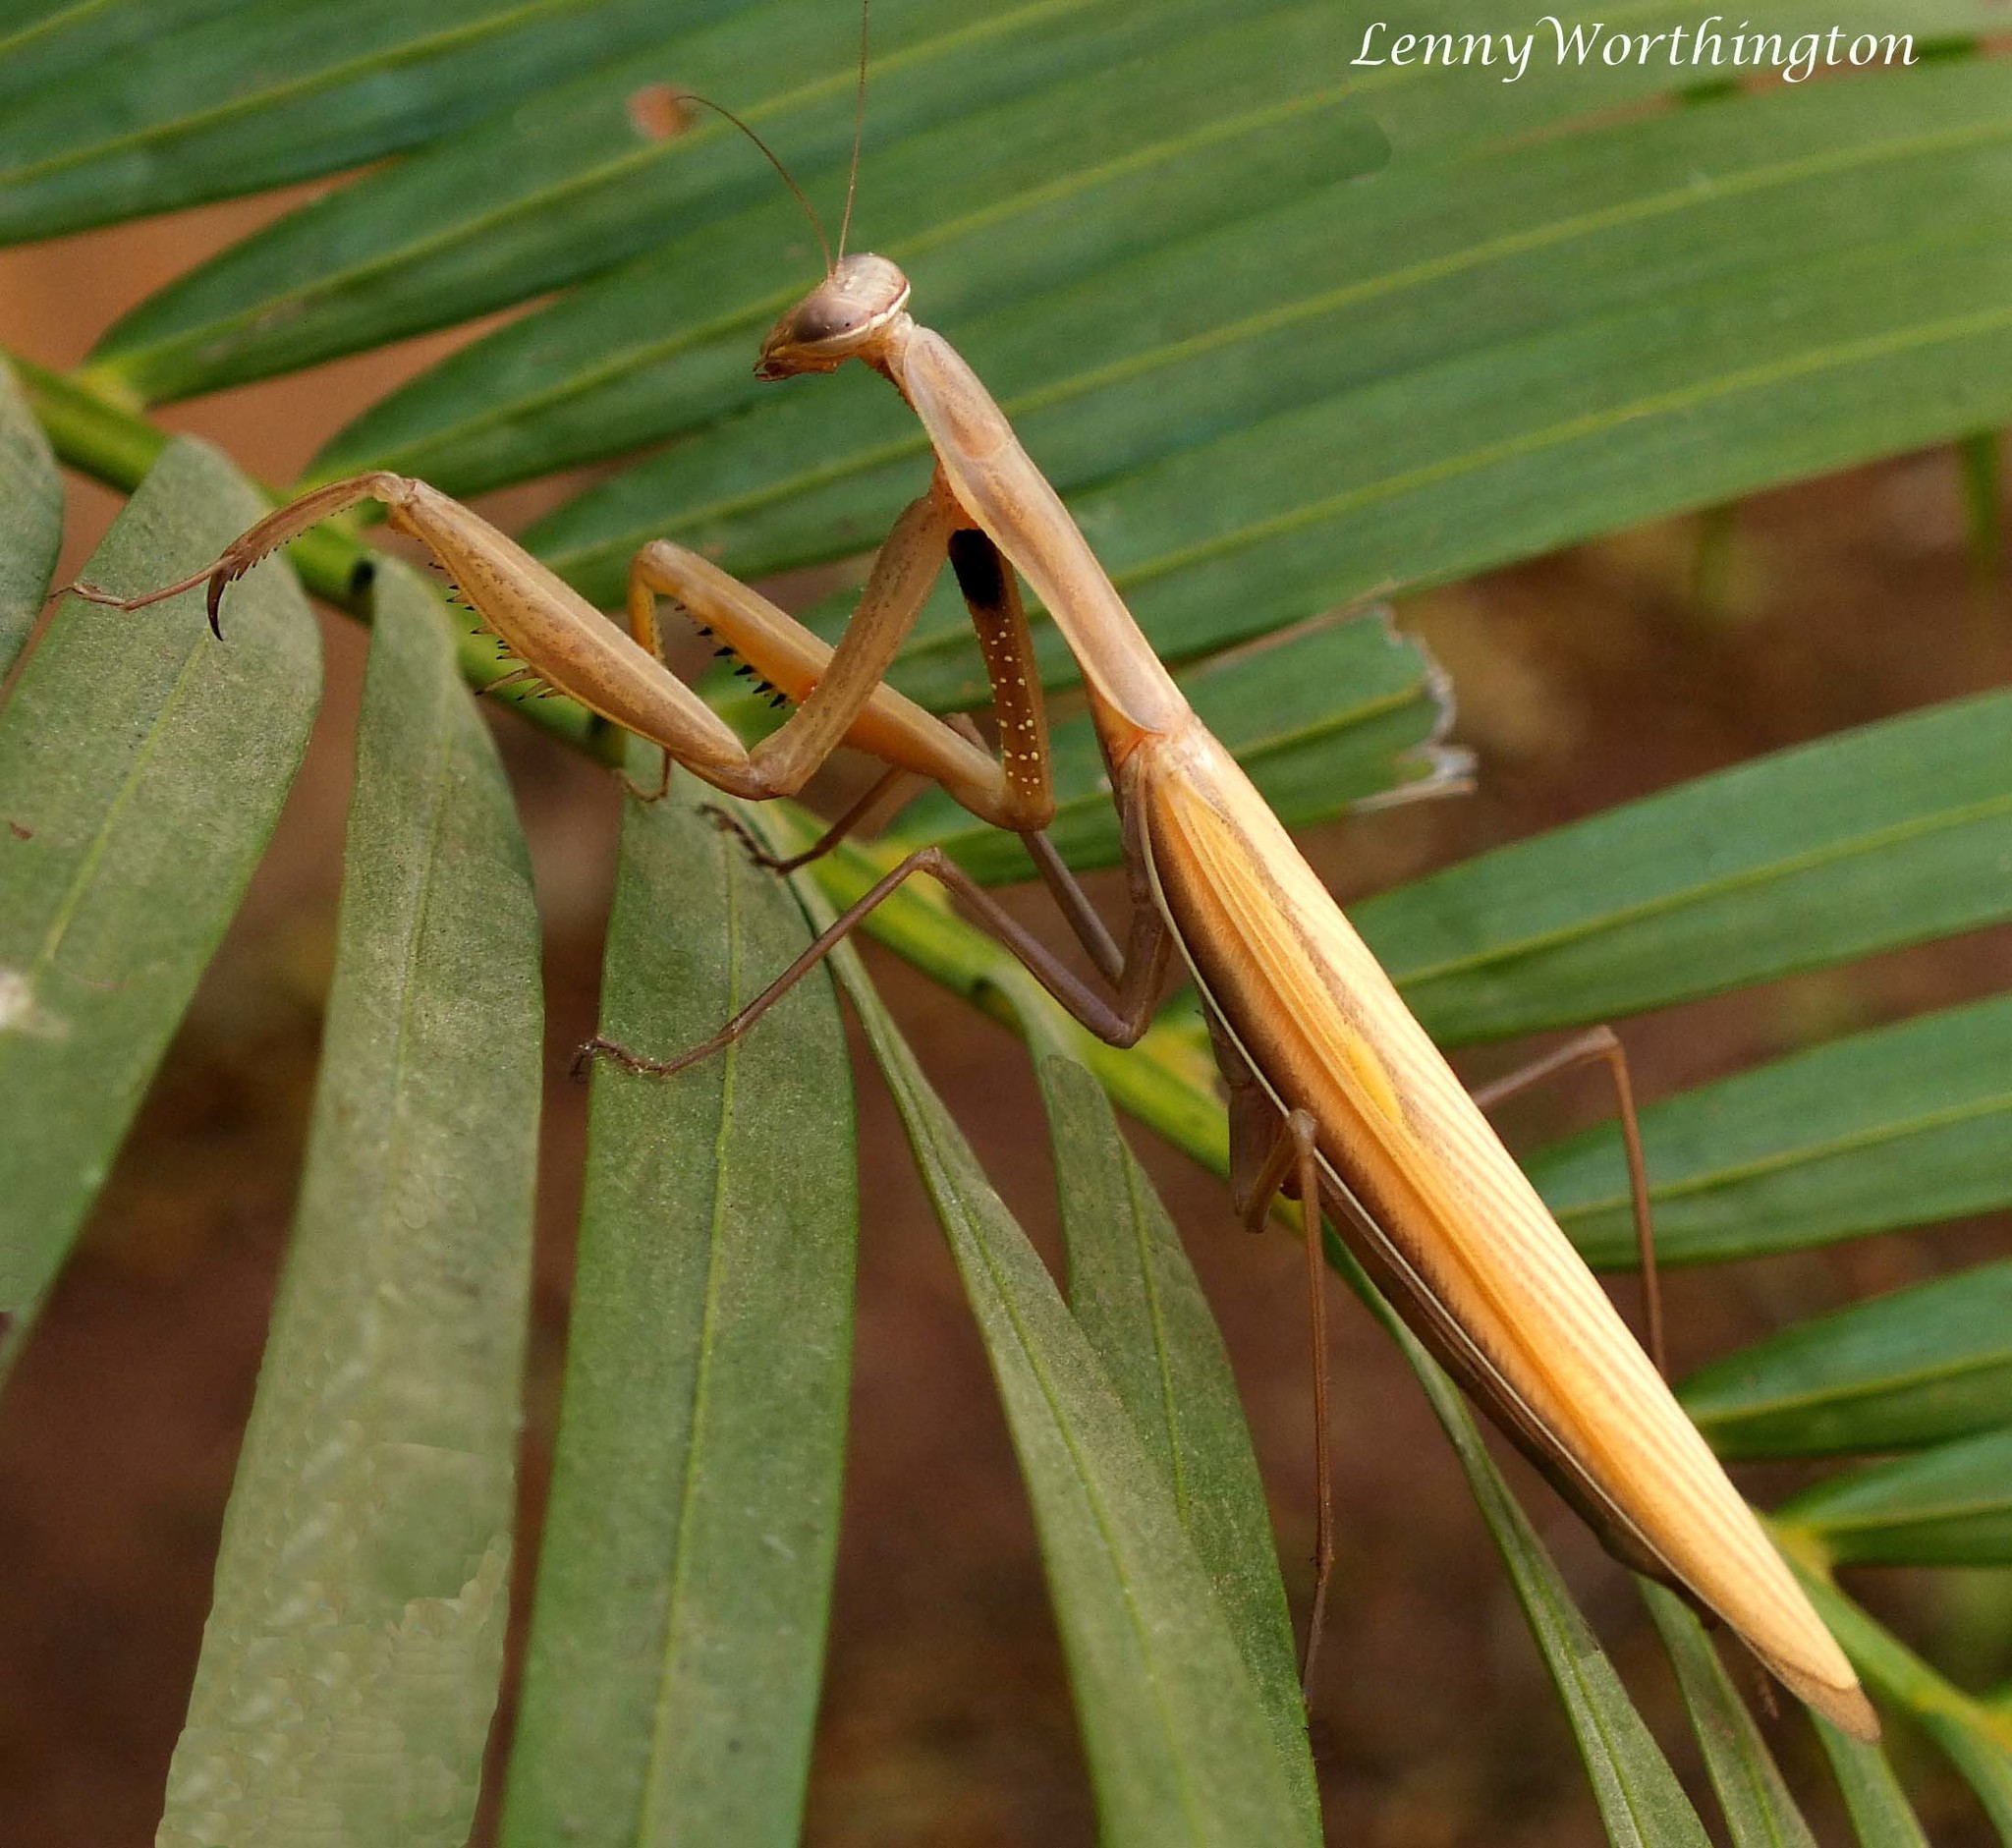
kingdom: Animalia
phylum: Arthropoda
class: Insecta
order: Mantodea
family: Mantidae
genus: Mantis
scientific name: Mantis religiosa
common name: Praying mantis
